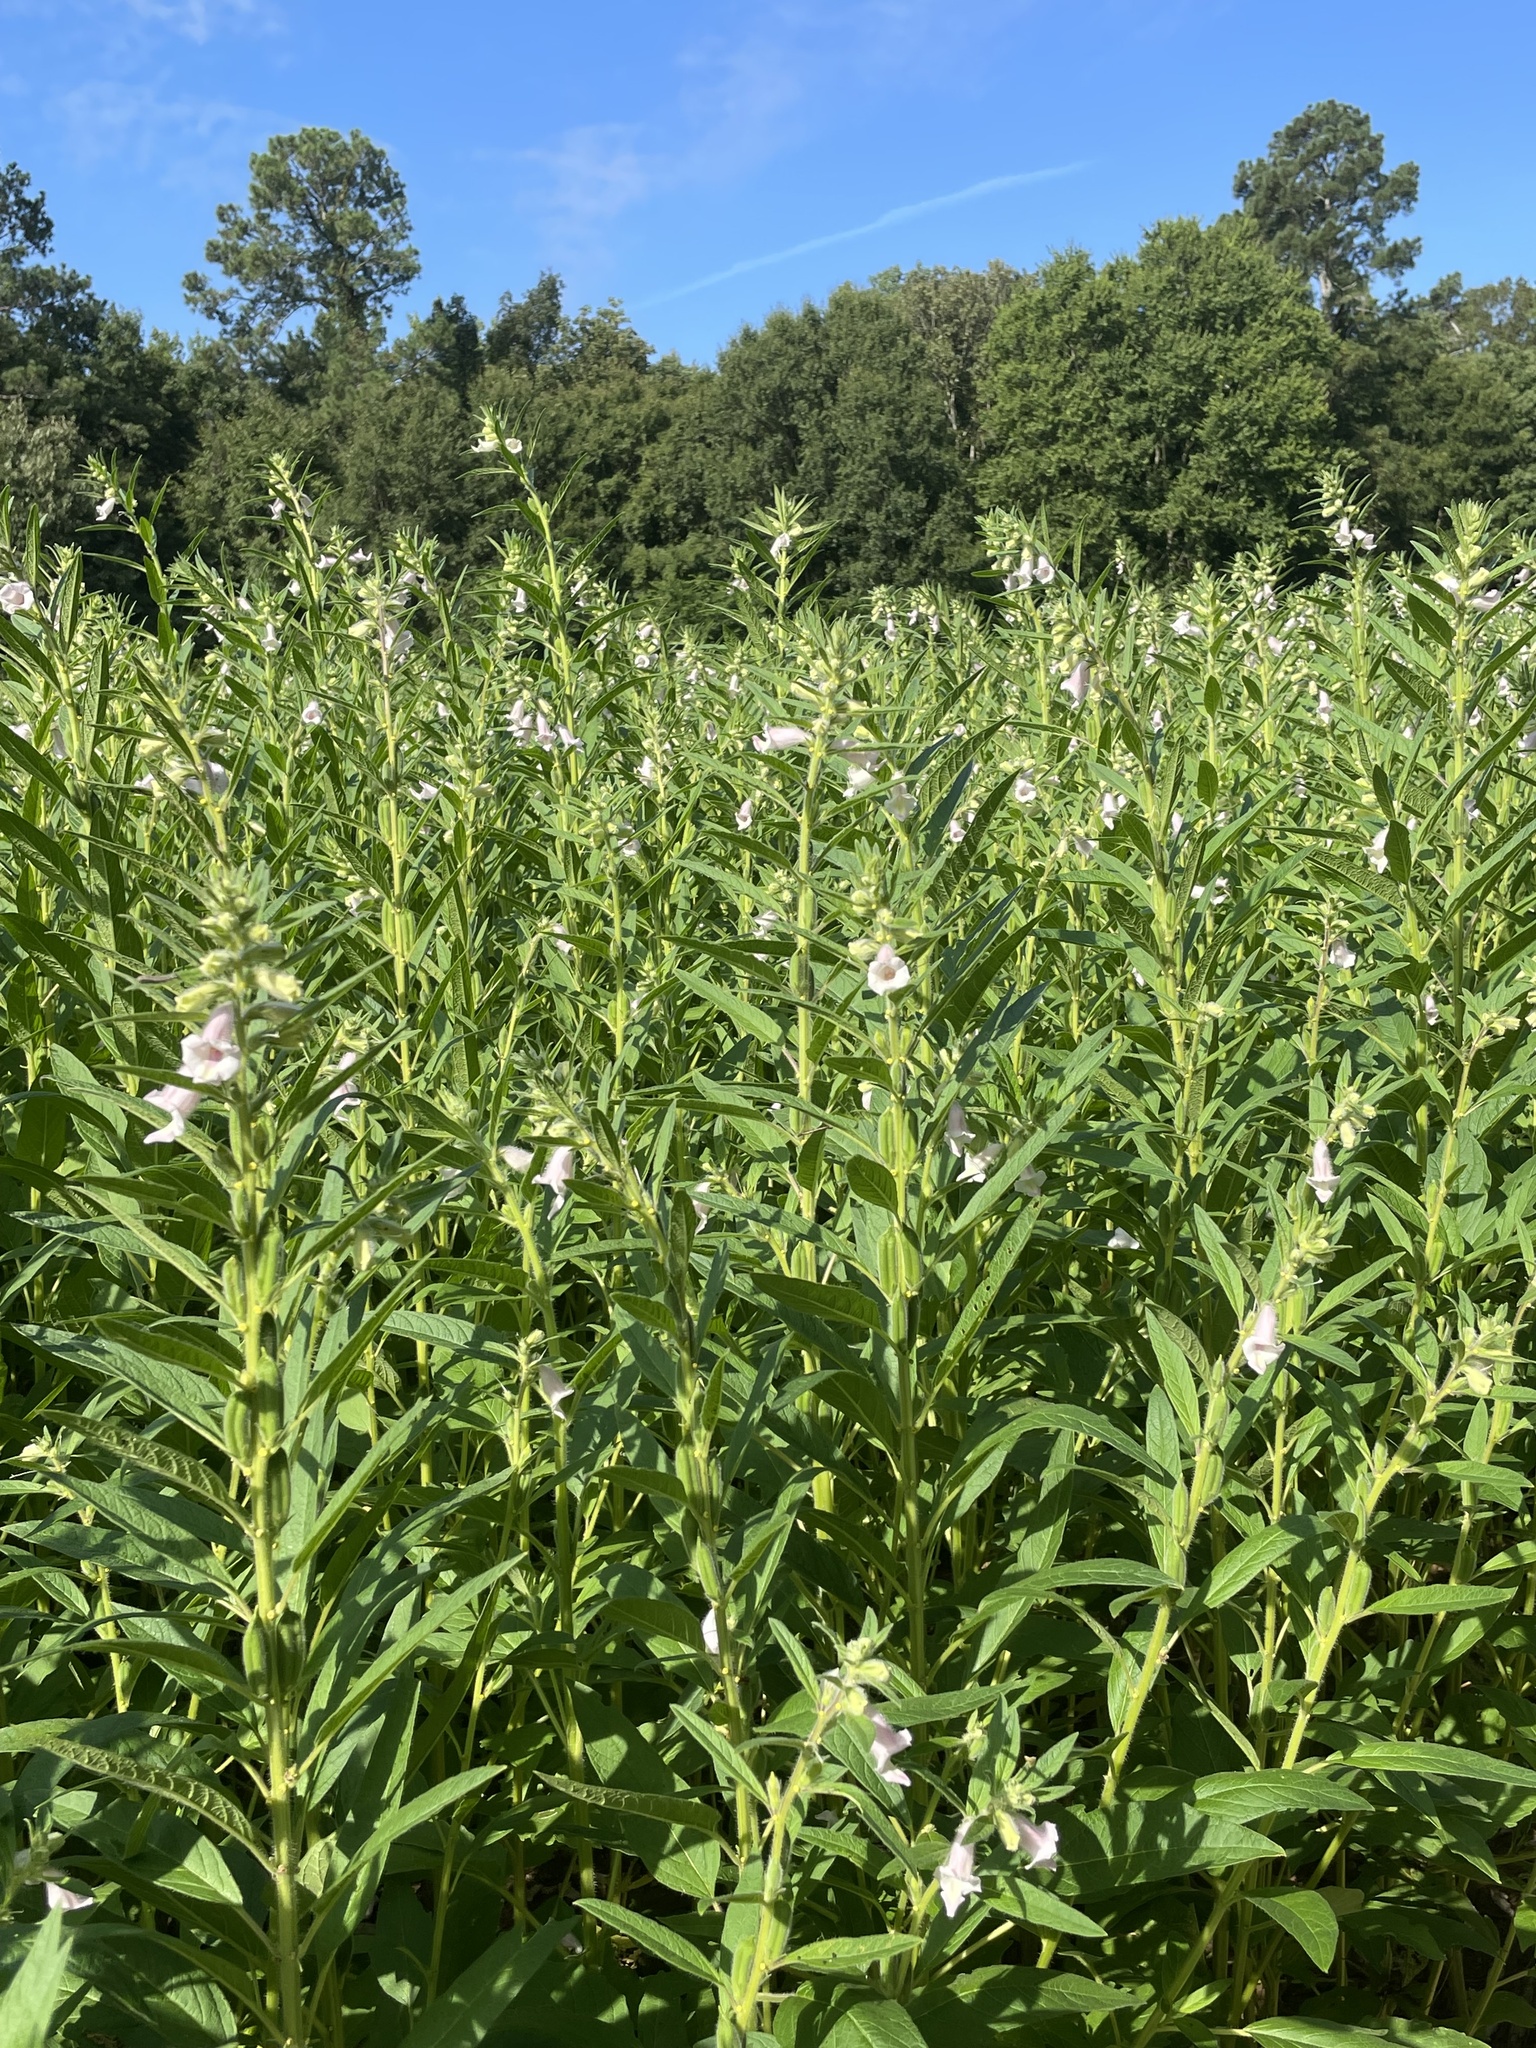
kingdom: Plantae
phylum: Tracheophyta
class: Magnoliopsida
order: Lamiales
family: Pedaliaceae
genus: Sesamum
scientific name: Sesamum indicum
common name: Sesame
